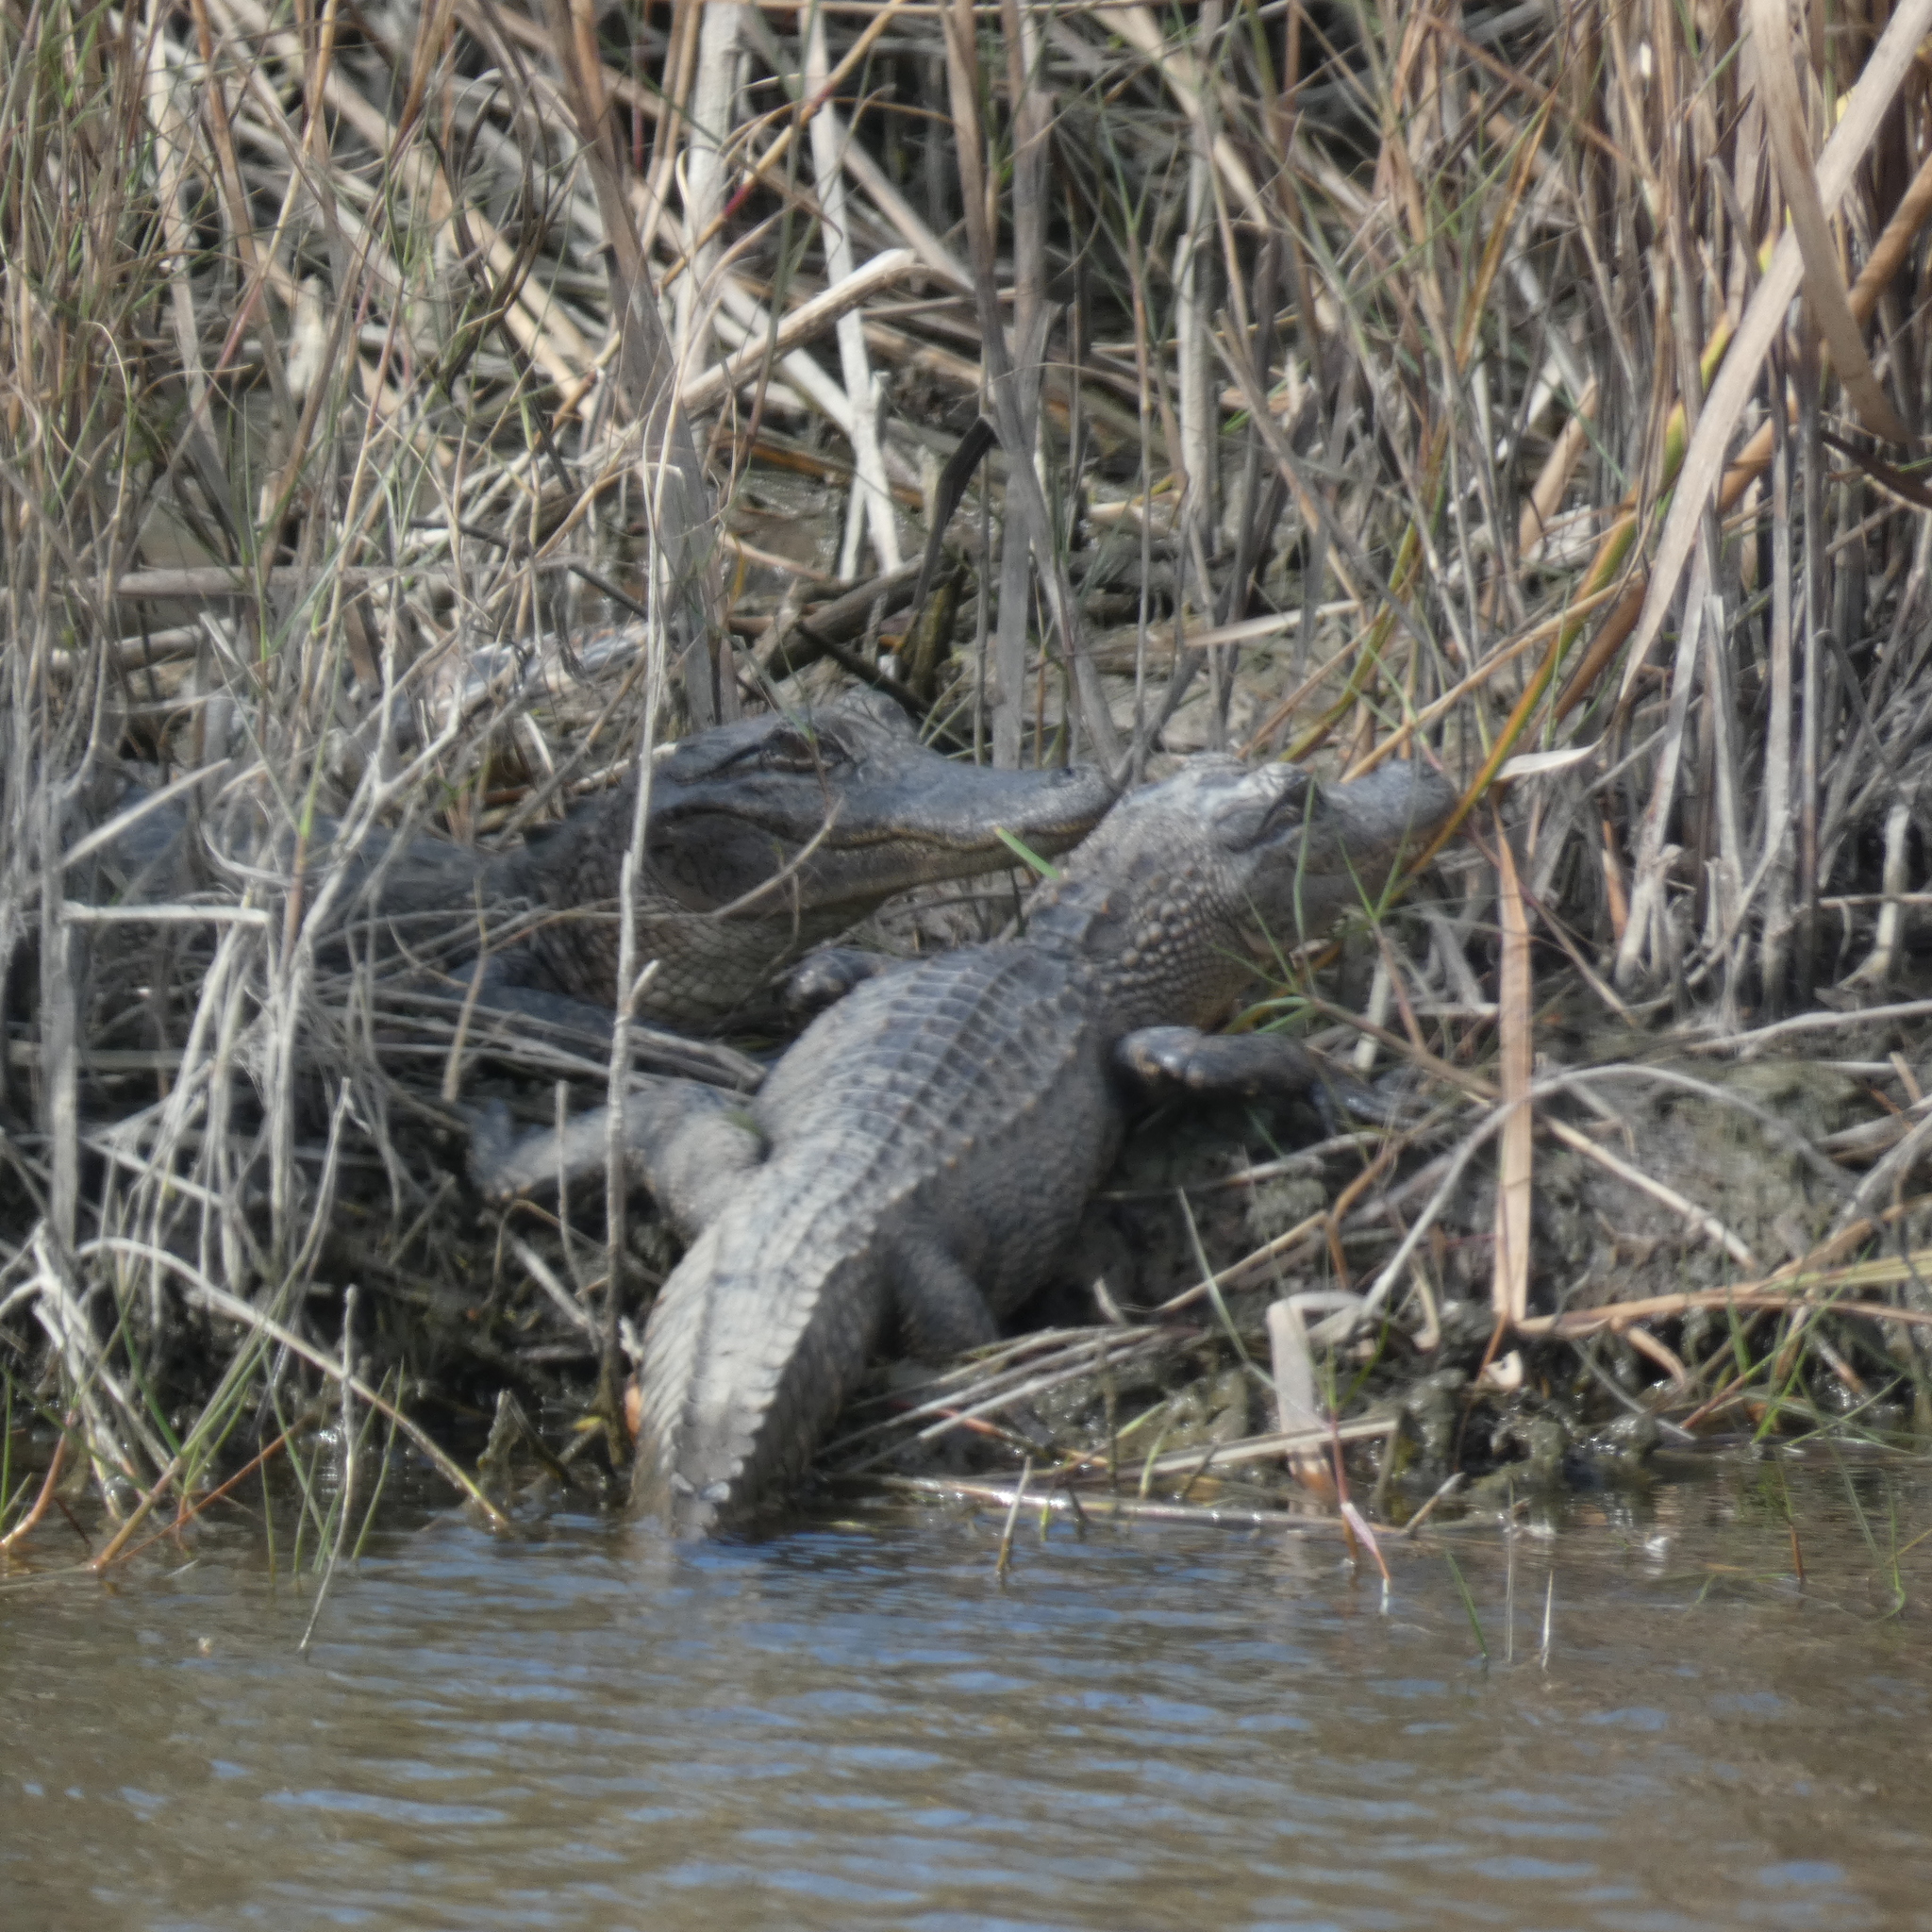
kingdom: Animalia
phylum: Chordata
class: Crocodylia
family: Alligatoridae
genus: Alligator
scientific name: Alligator mississippiensis
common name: American alligator
